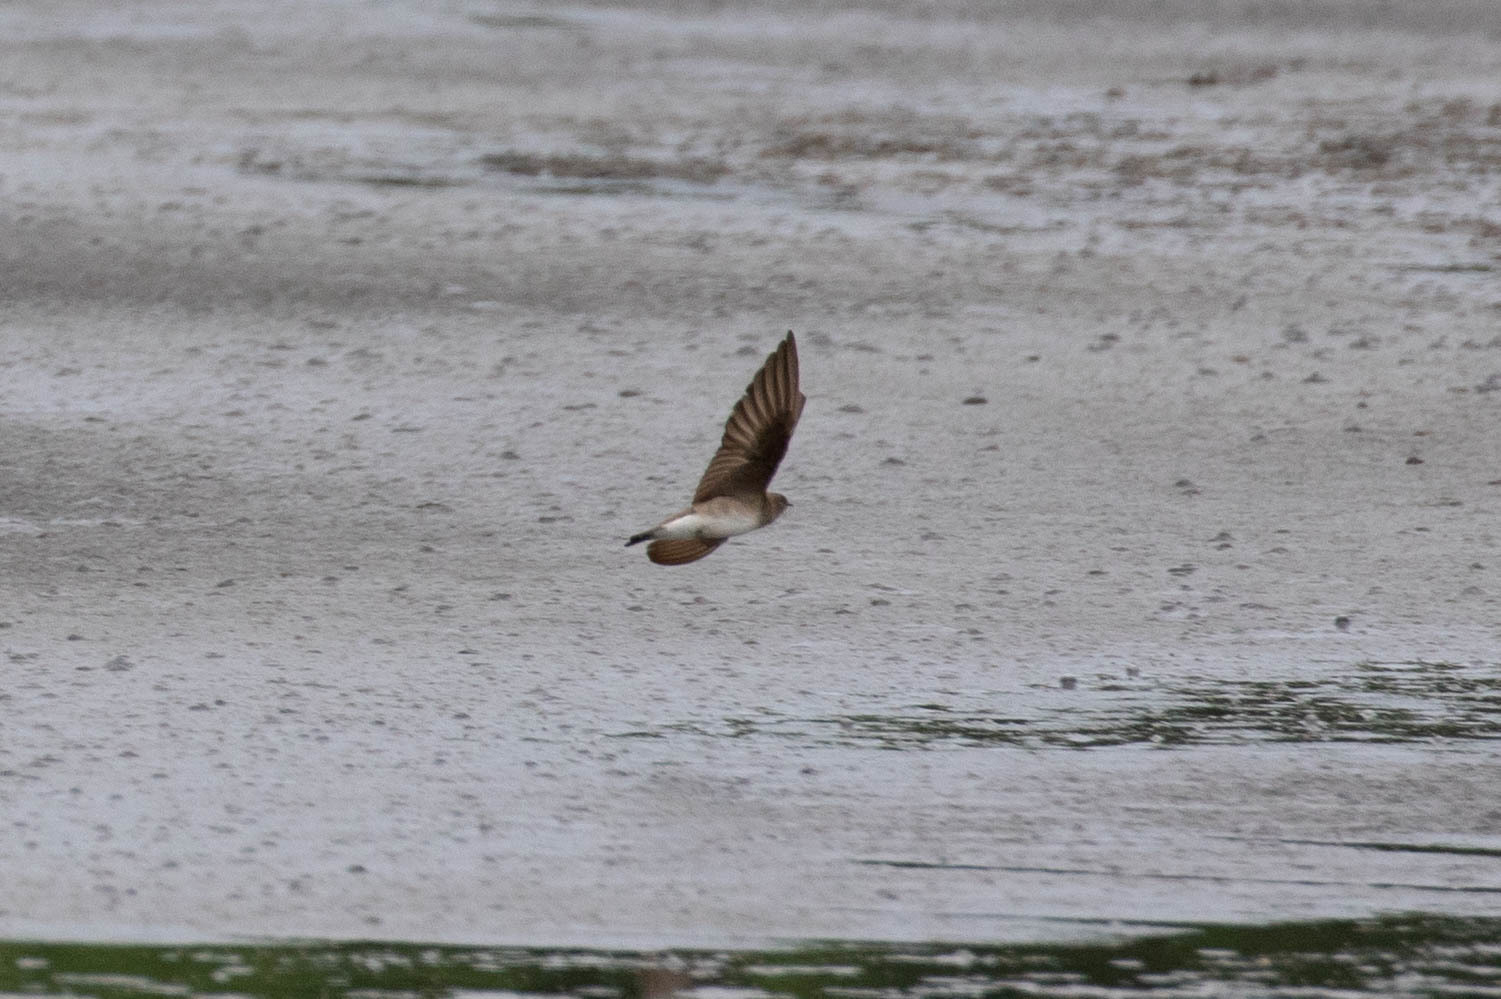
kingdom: Animalia
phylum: Chordata
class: Aves
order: Passeriformes
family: Hirundinidae
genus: Stelgidopteryx
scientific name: Stelgidopteryx serripennis
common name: Northern rough-winged swallow
